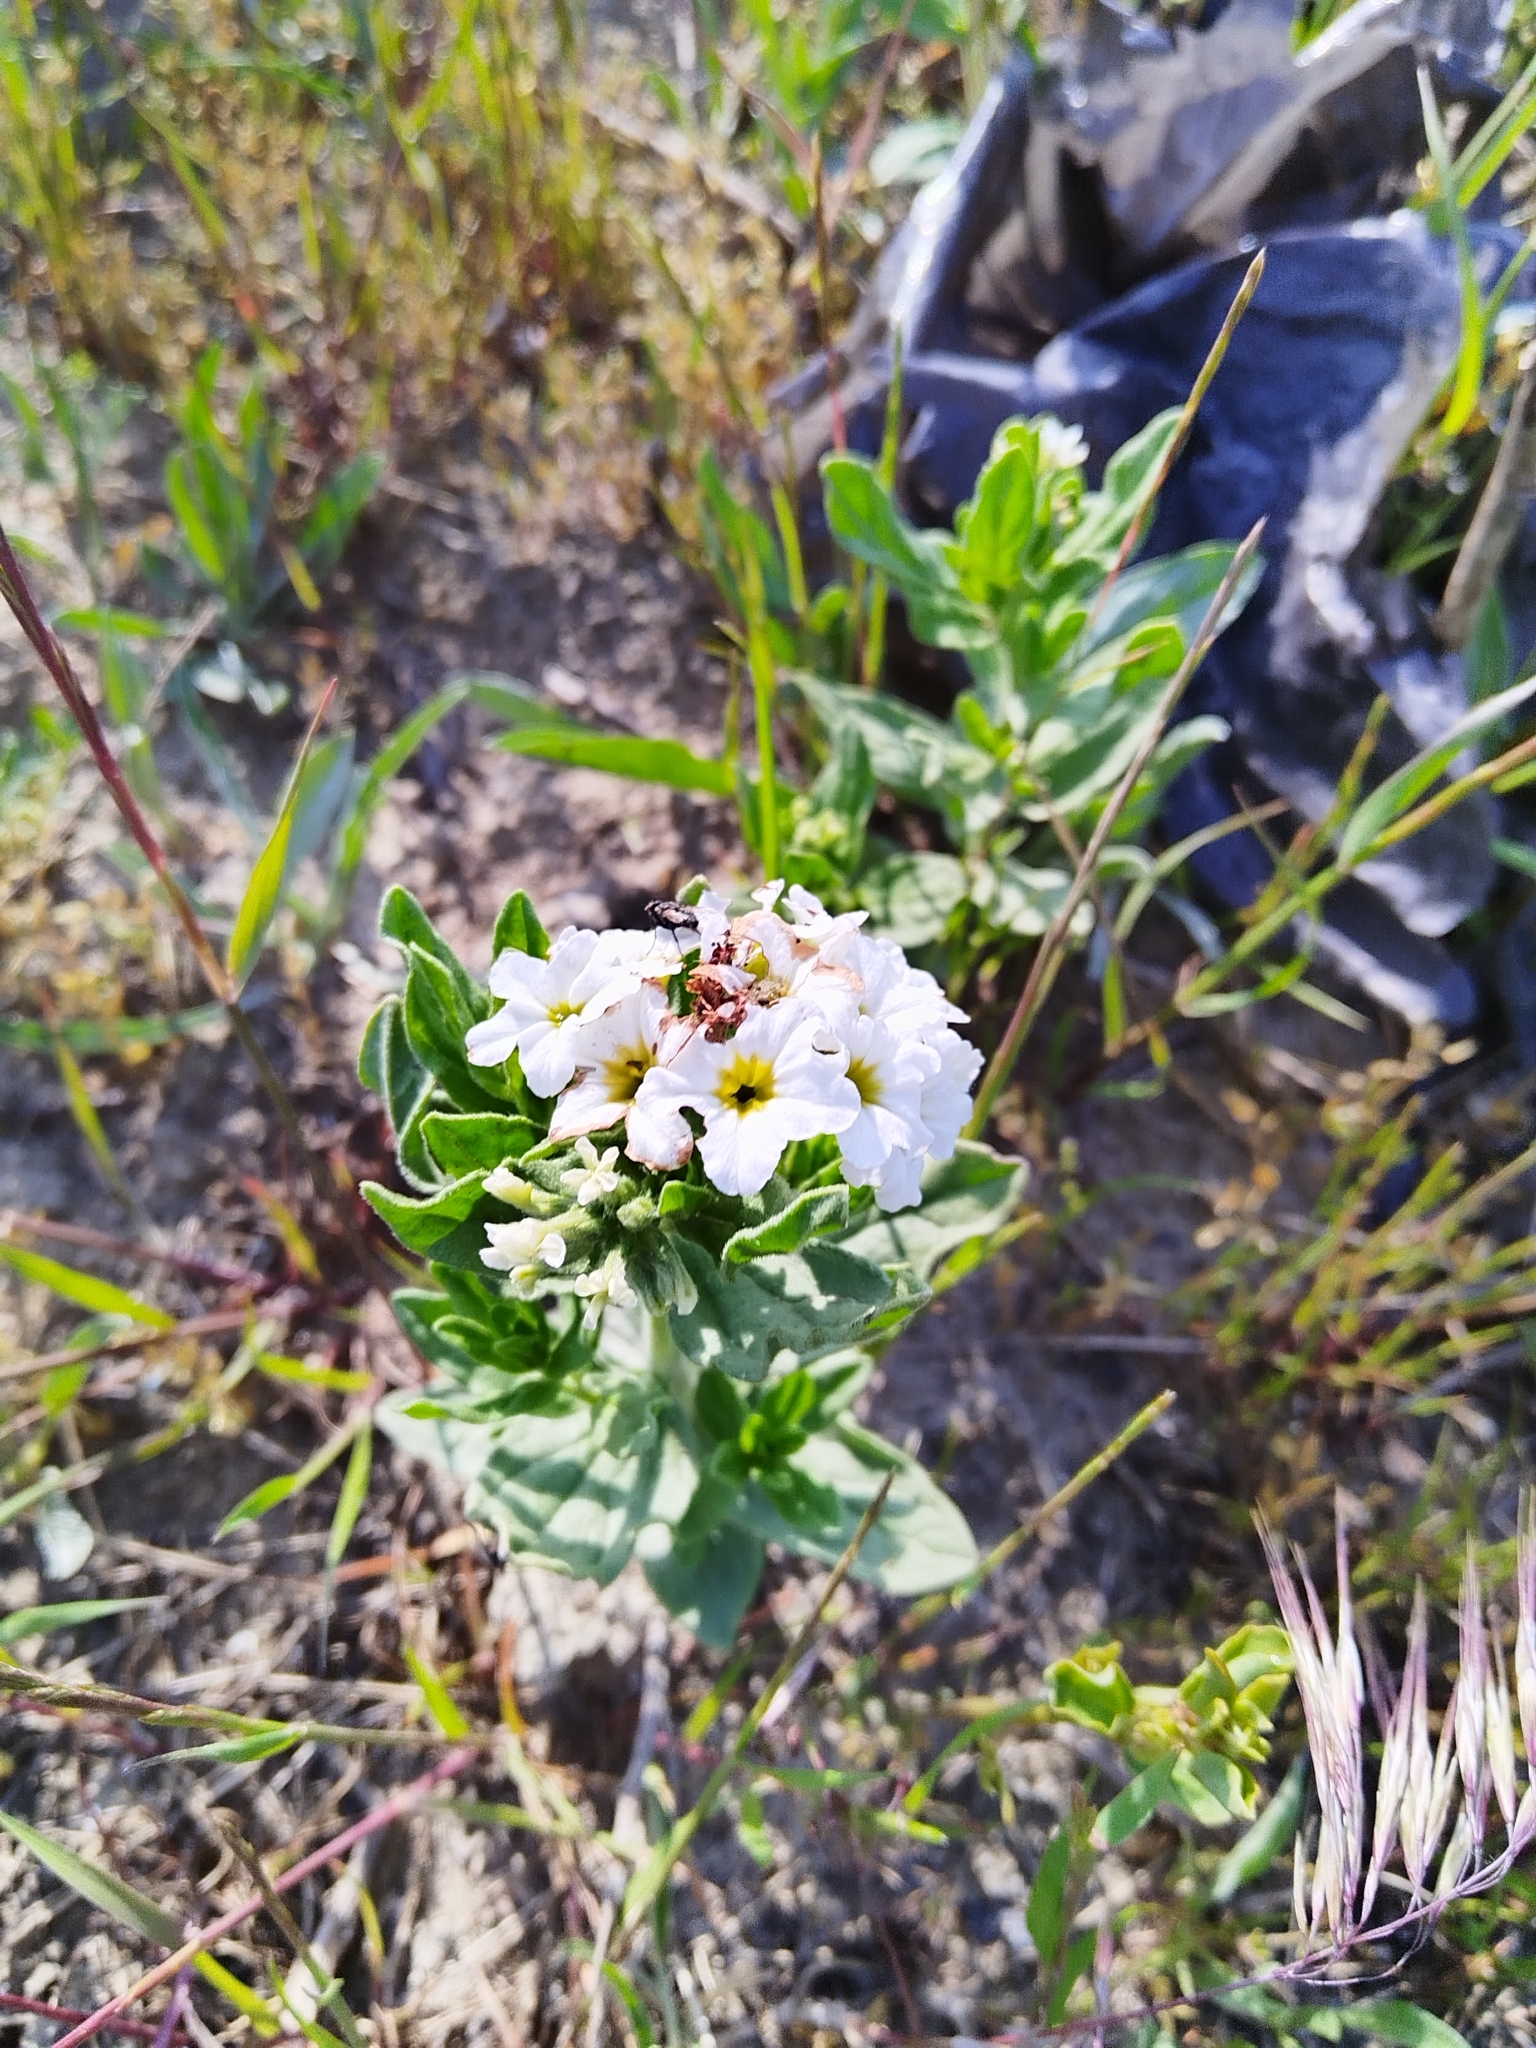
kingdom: Plantae
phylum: Tracheophyta
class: Magnoliopsida
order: Boraginales
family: Heliotropiaceae
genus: Tournefortia
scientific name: Tournefortia sibirica
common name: Siberian sea rosemary
